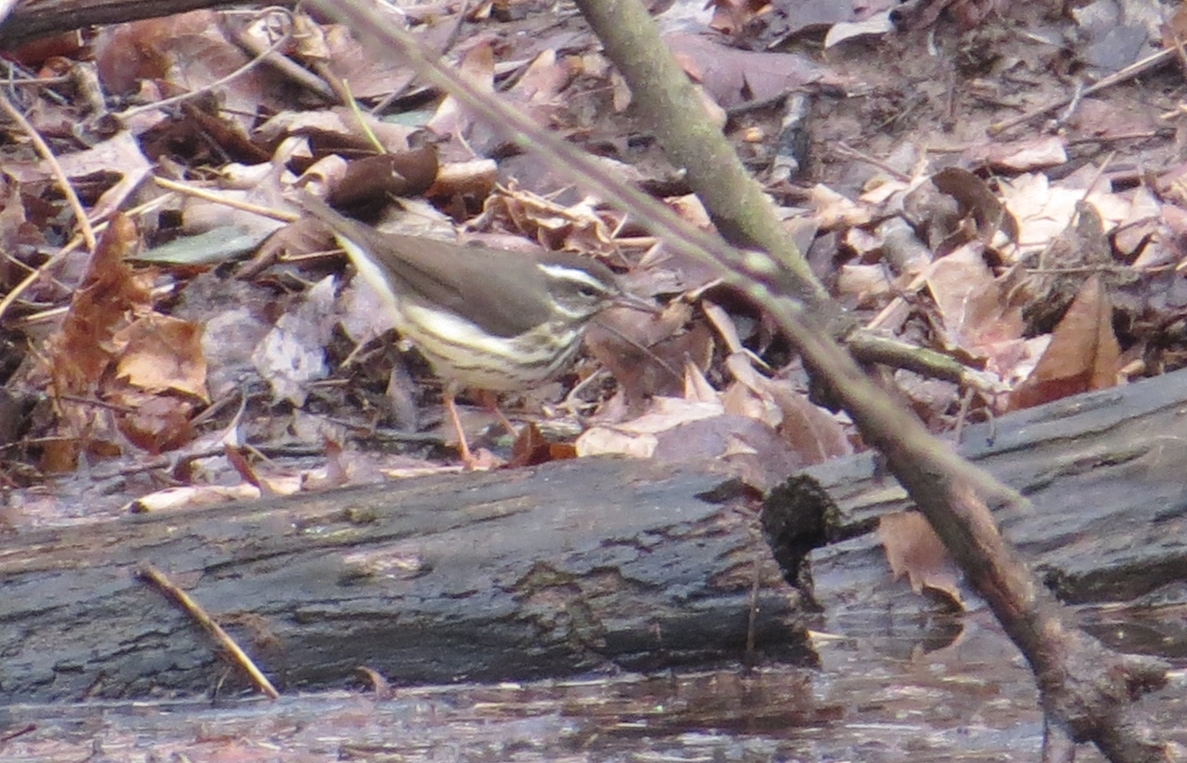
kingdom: Animalia
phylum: Chordata
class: Aves
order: Passeriformes
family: Parulidae
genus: Parkesia
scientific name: Parkesia motacilla
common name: Louisiana waterthrush
